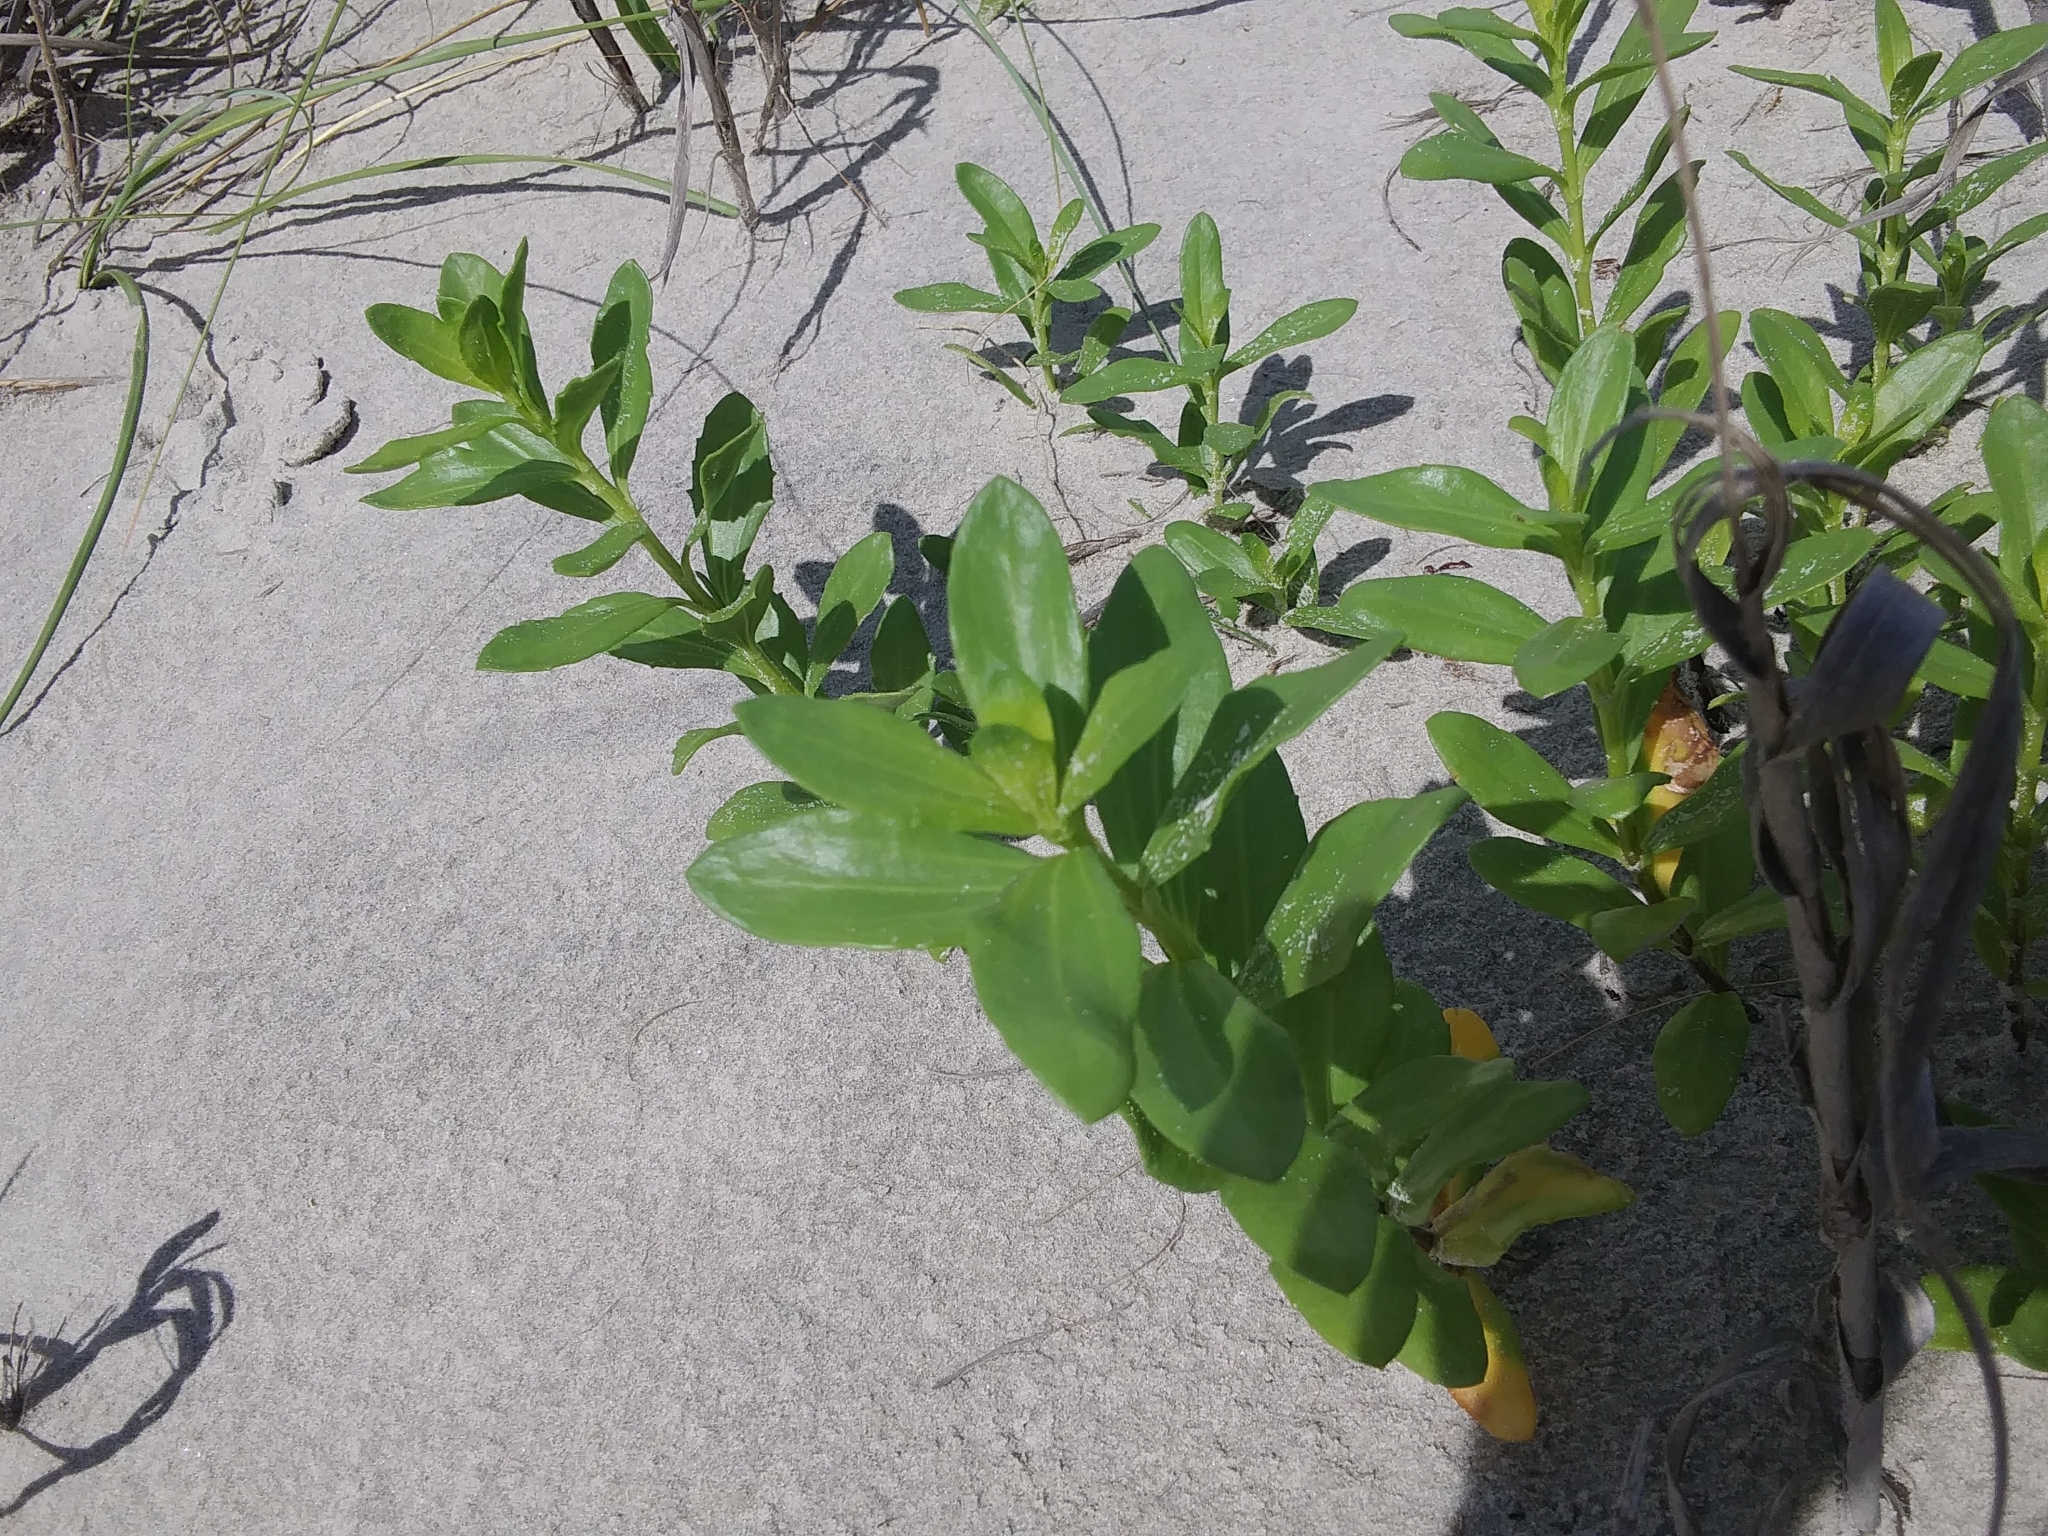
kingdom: Plantae
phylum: Tracheophyta
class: Magnoliopsida
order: Asterales
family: Asteraceae
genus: Iva
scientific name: Iva imbricata
